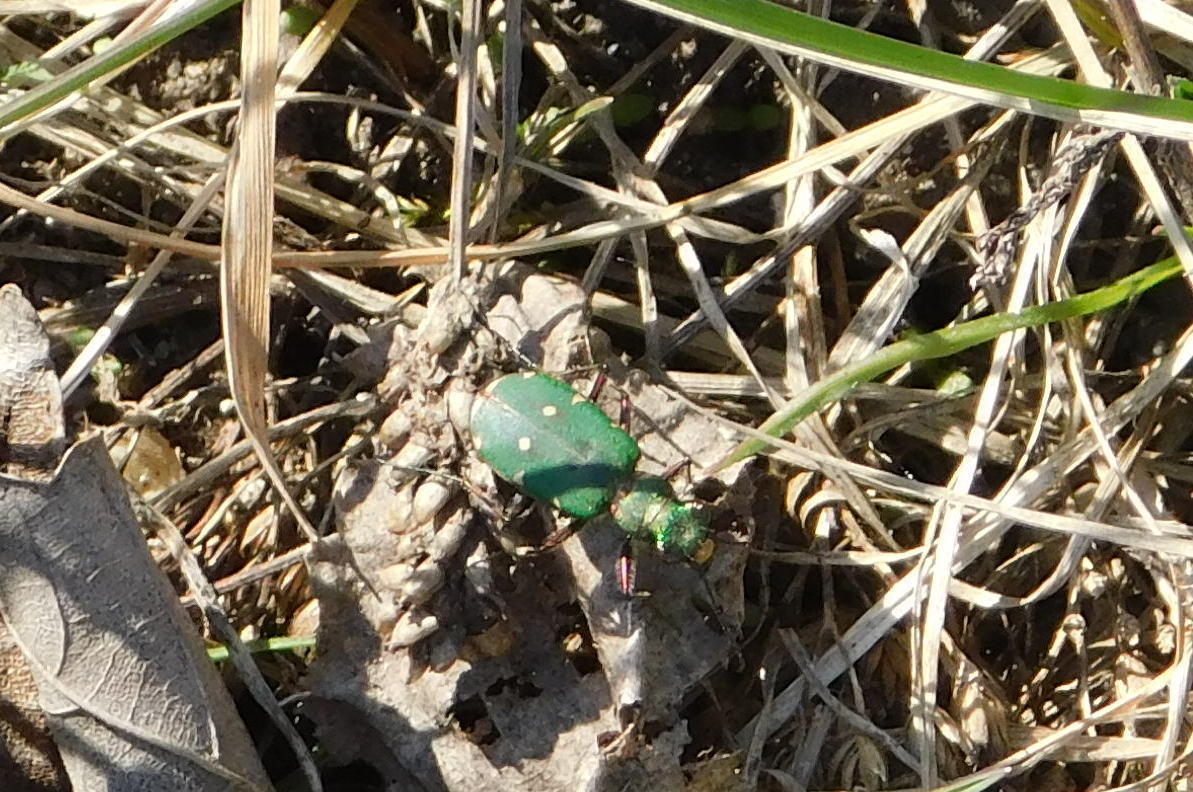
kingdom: Animalia
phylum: Arthropoda
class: Insecta
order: Coleoptera
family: Carabidae
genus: Cicindela
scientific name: Cicindela campestris
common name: Common tiger beetle
